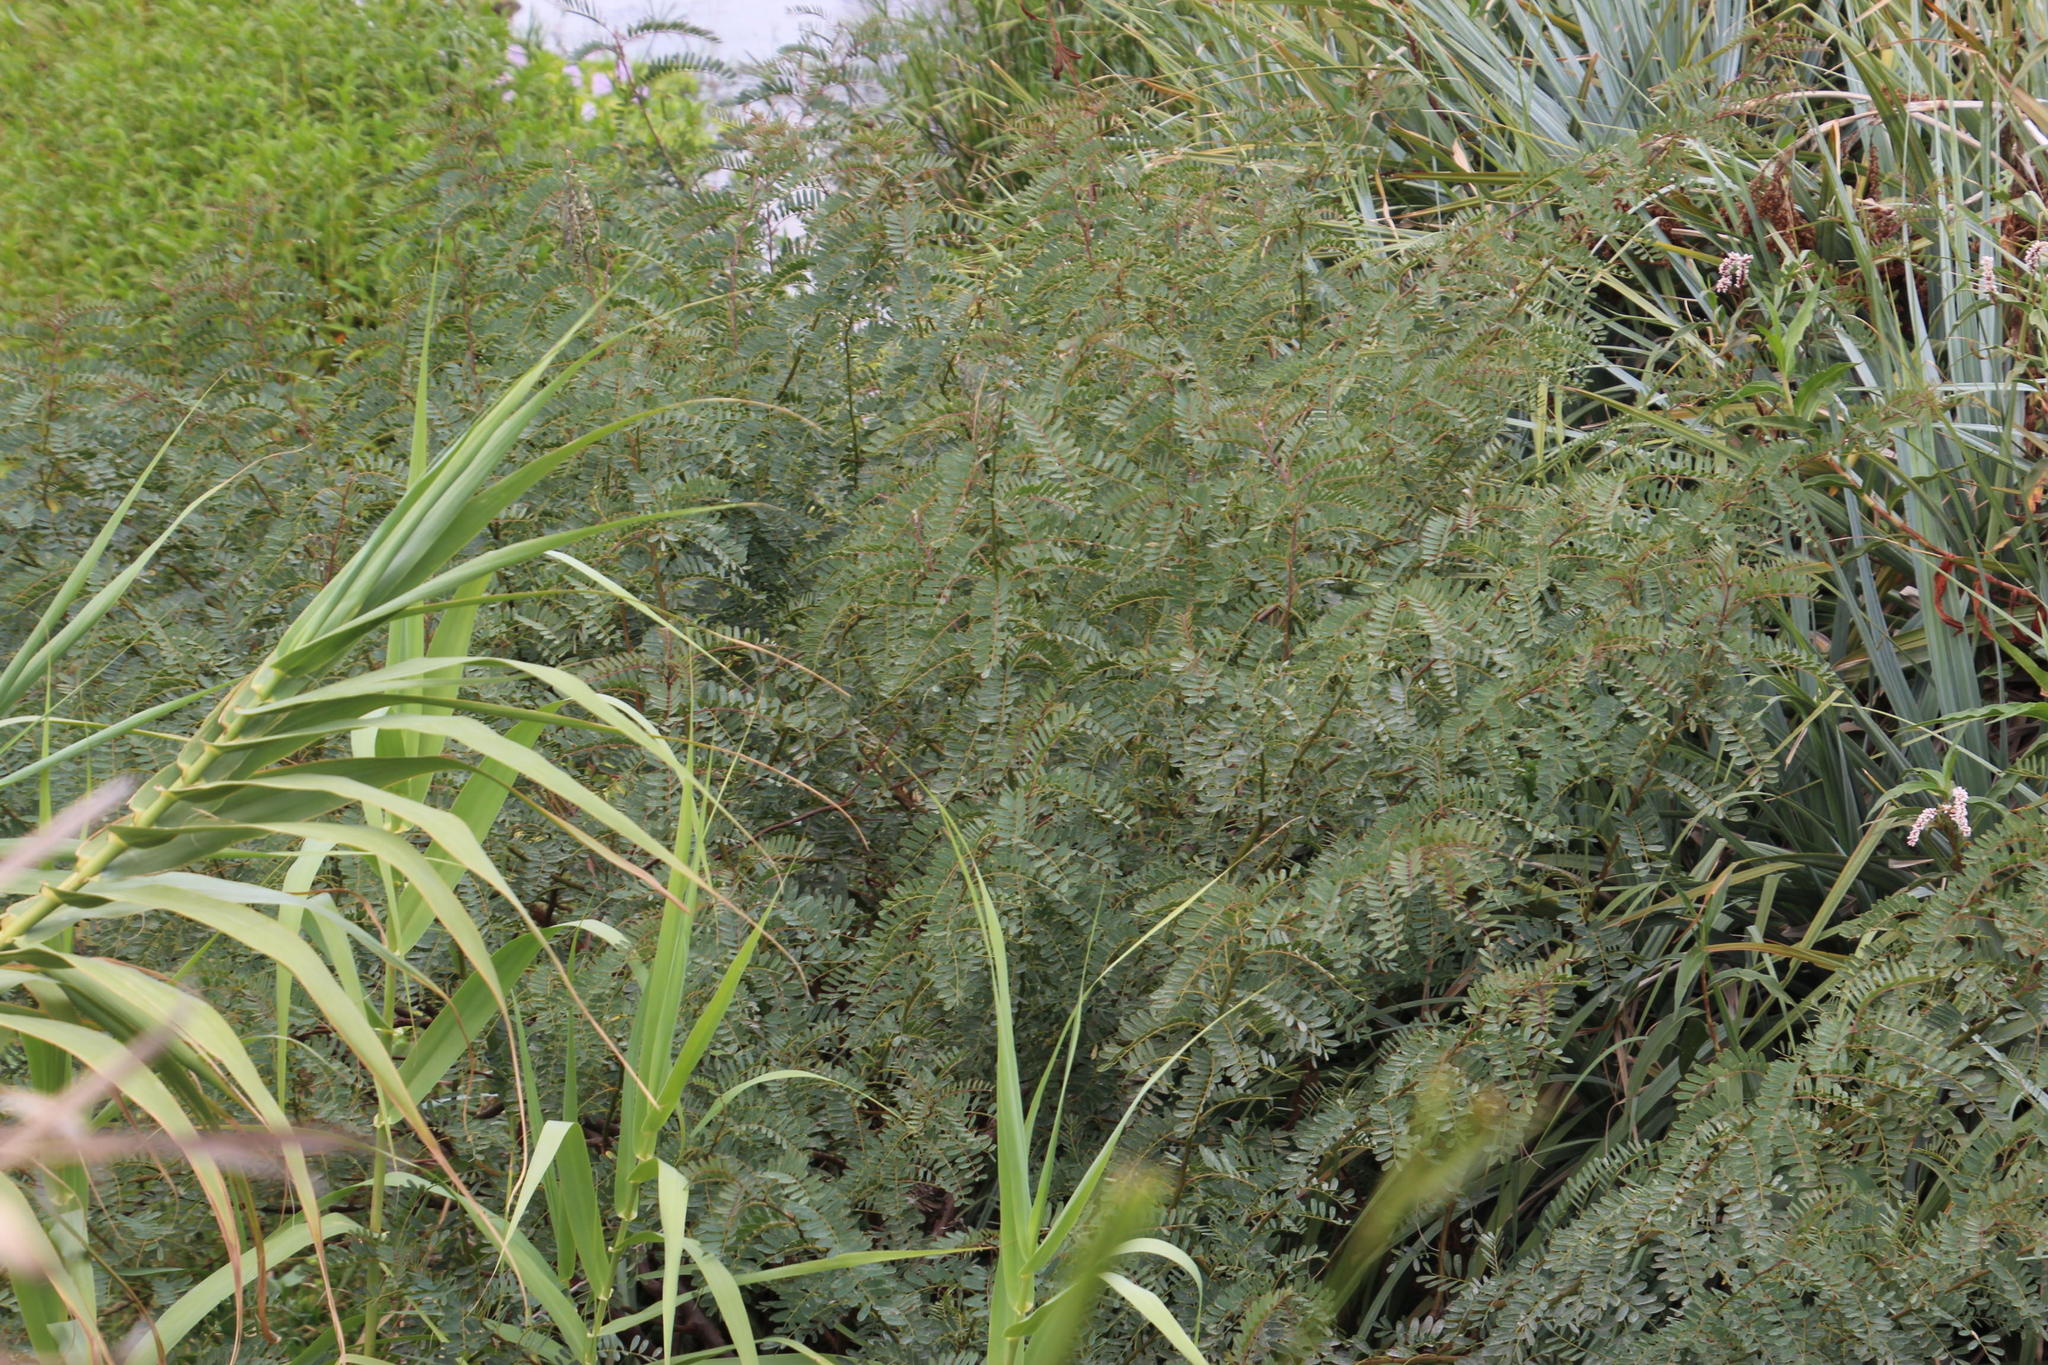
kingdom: Plantae
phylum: Tracheophyta
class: Magnoliopsida
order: Fabales
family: Fabaceae
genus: Sesbania
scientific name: Sesbania punicea
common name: Rattlebox
